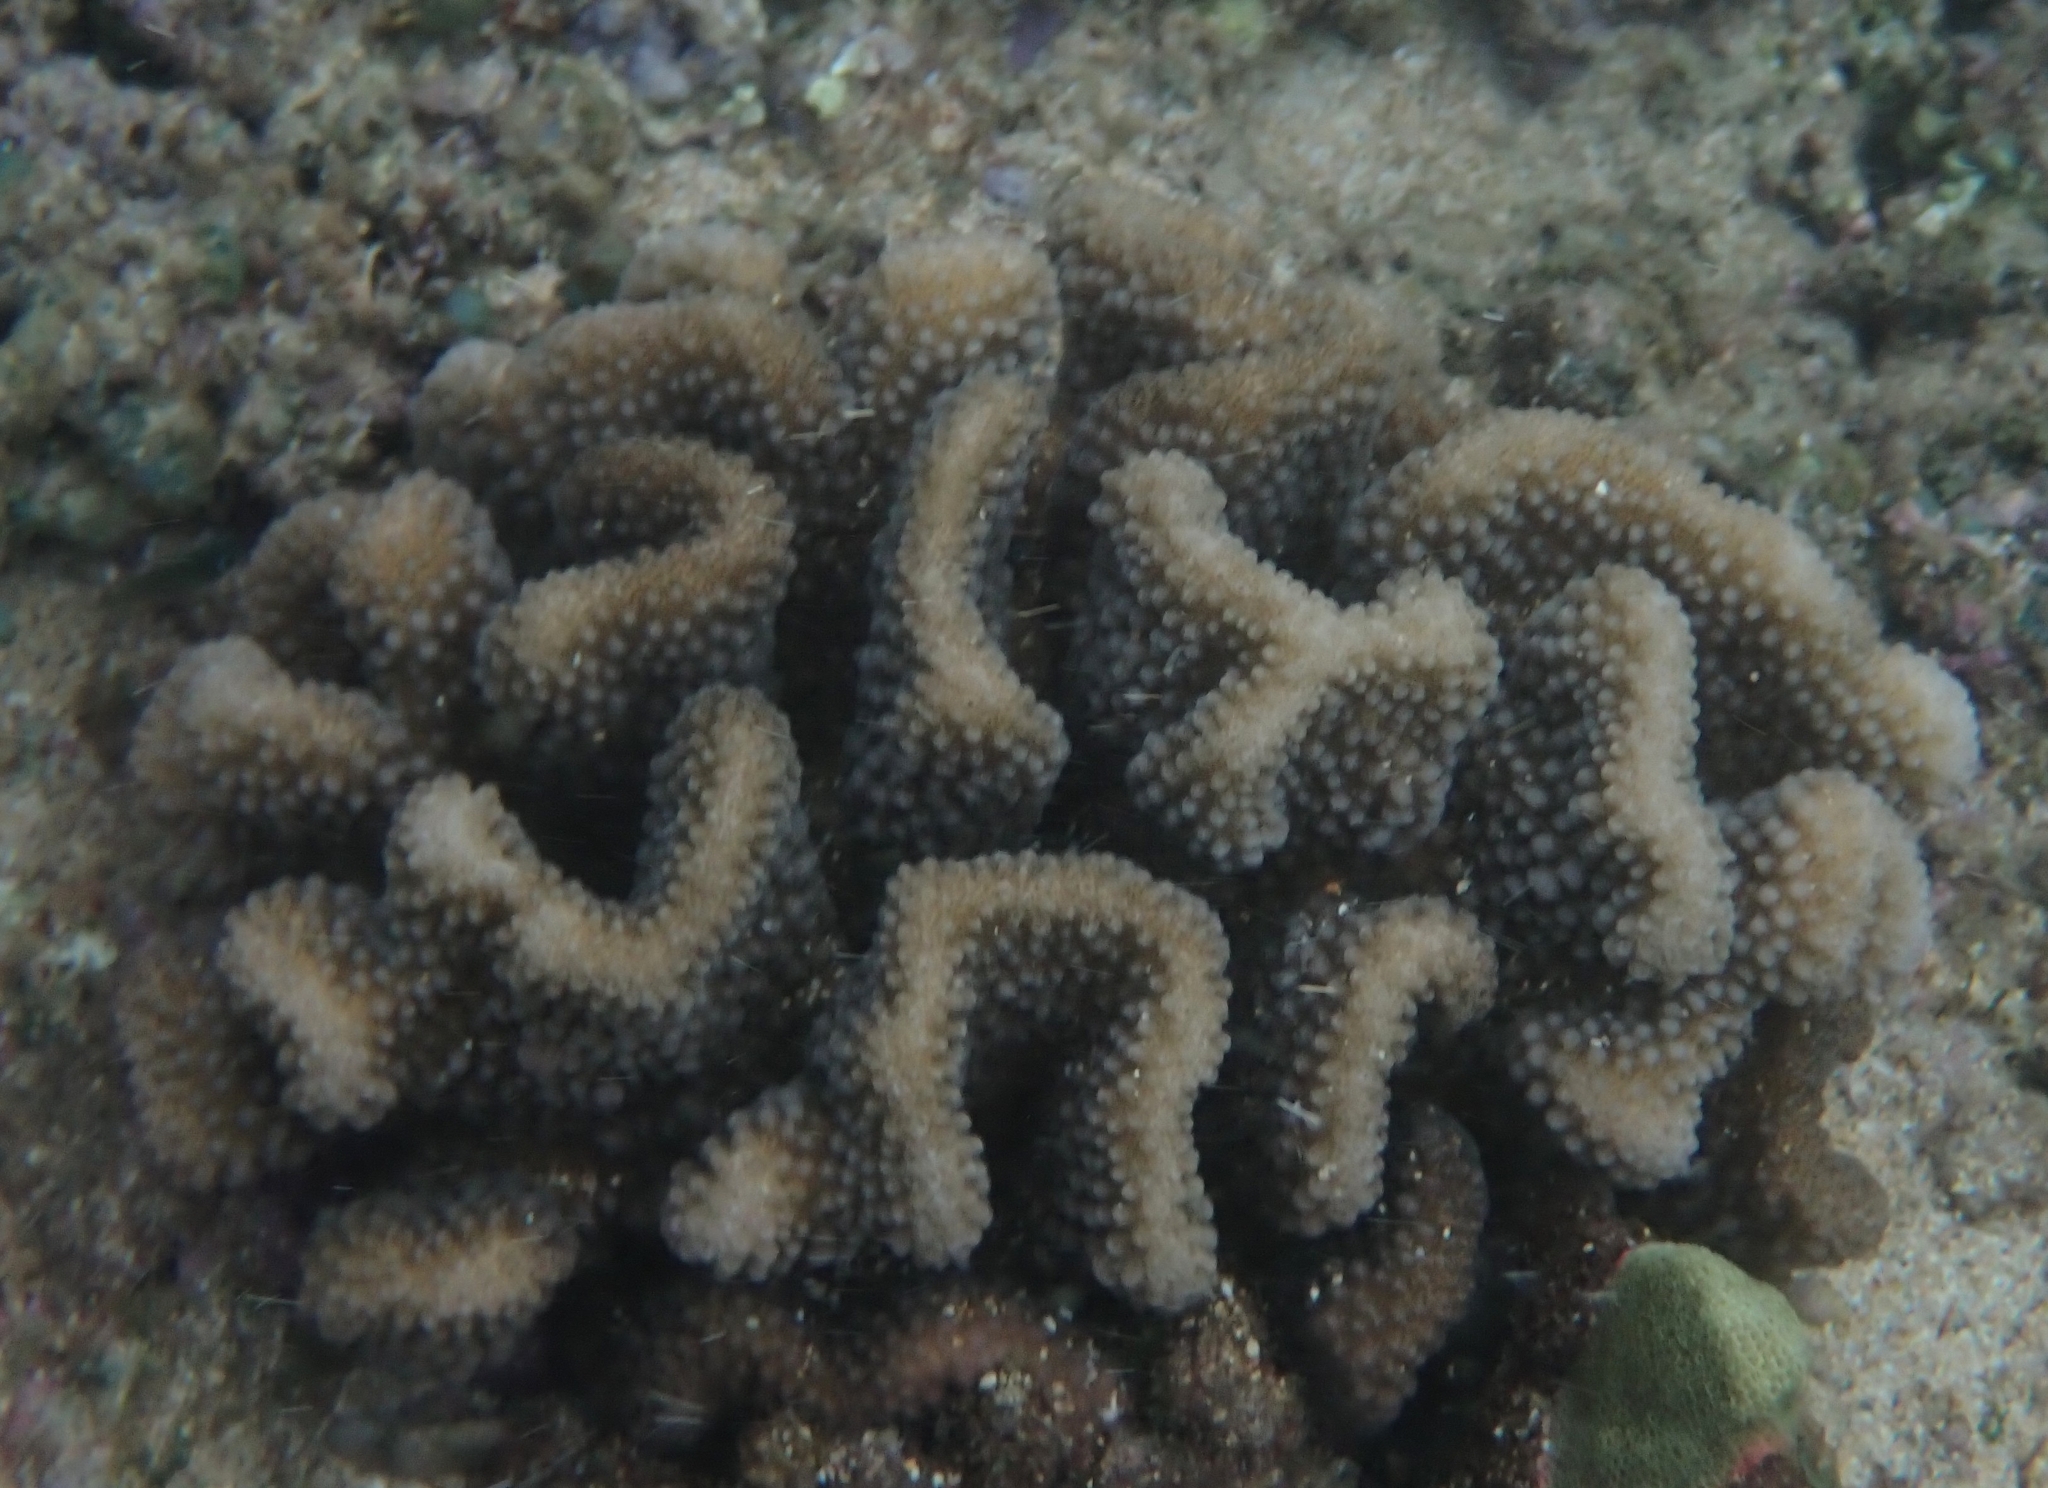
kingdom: Animalia
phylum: Cnidaria
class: Anthozoa
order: Scleractinia
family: Pocilloporidae
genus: Pocillopora
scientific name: Pocillopora meandrina
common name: Cauliflower coral
